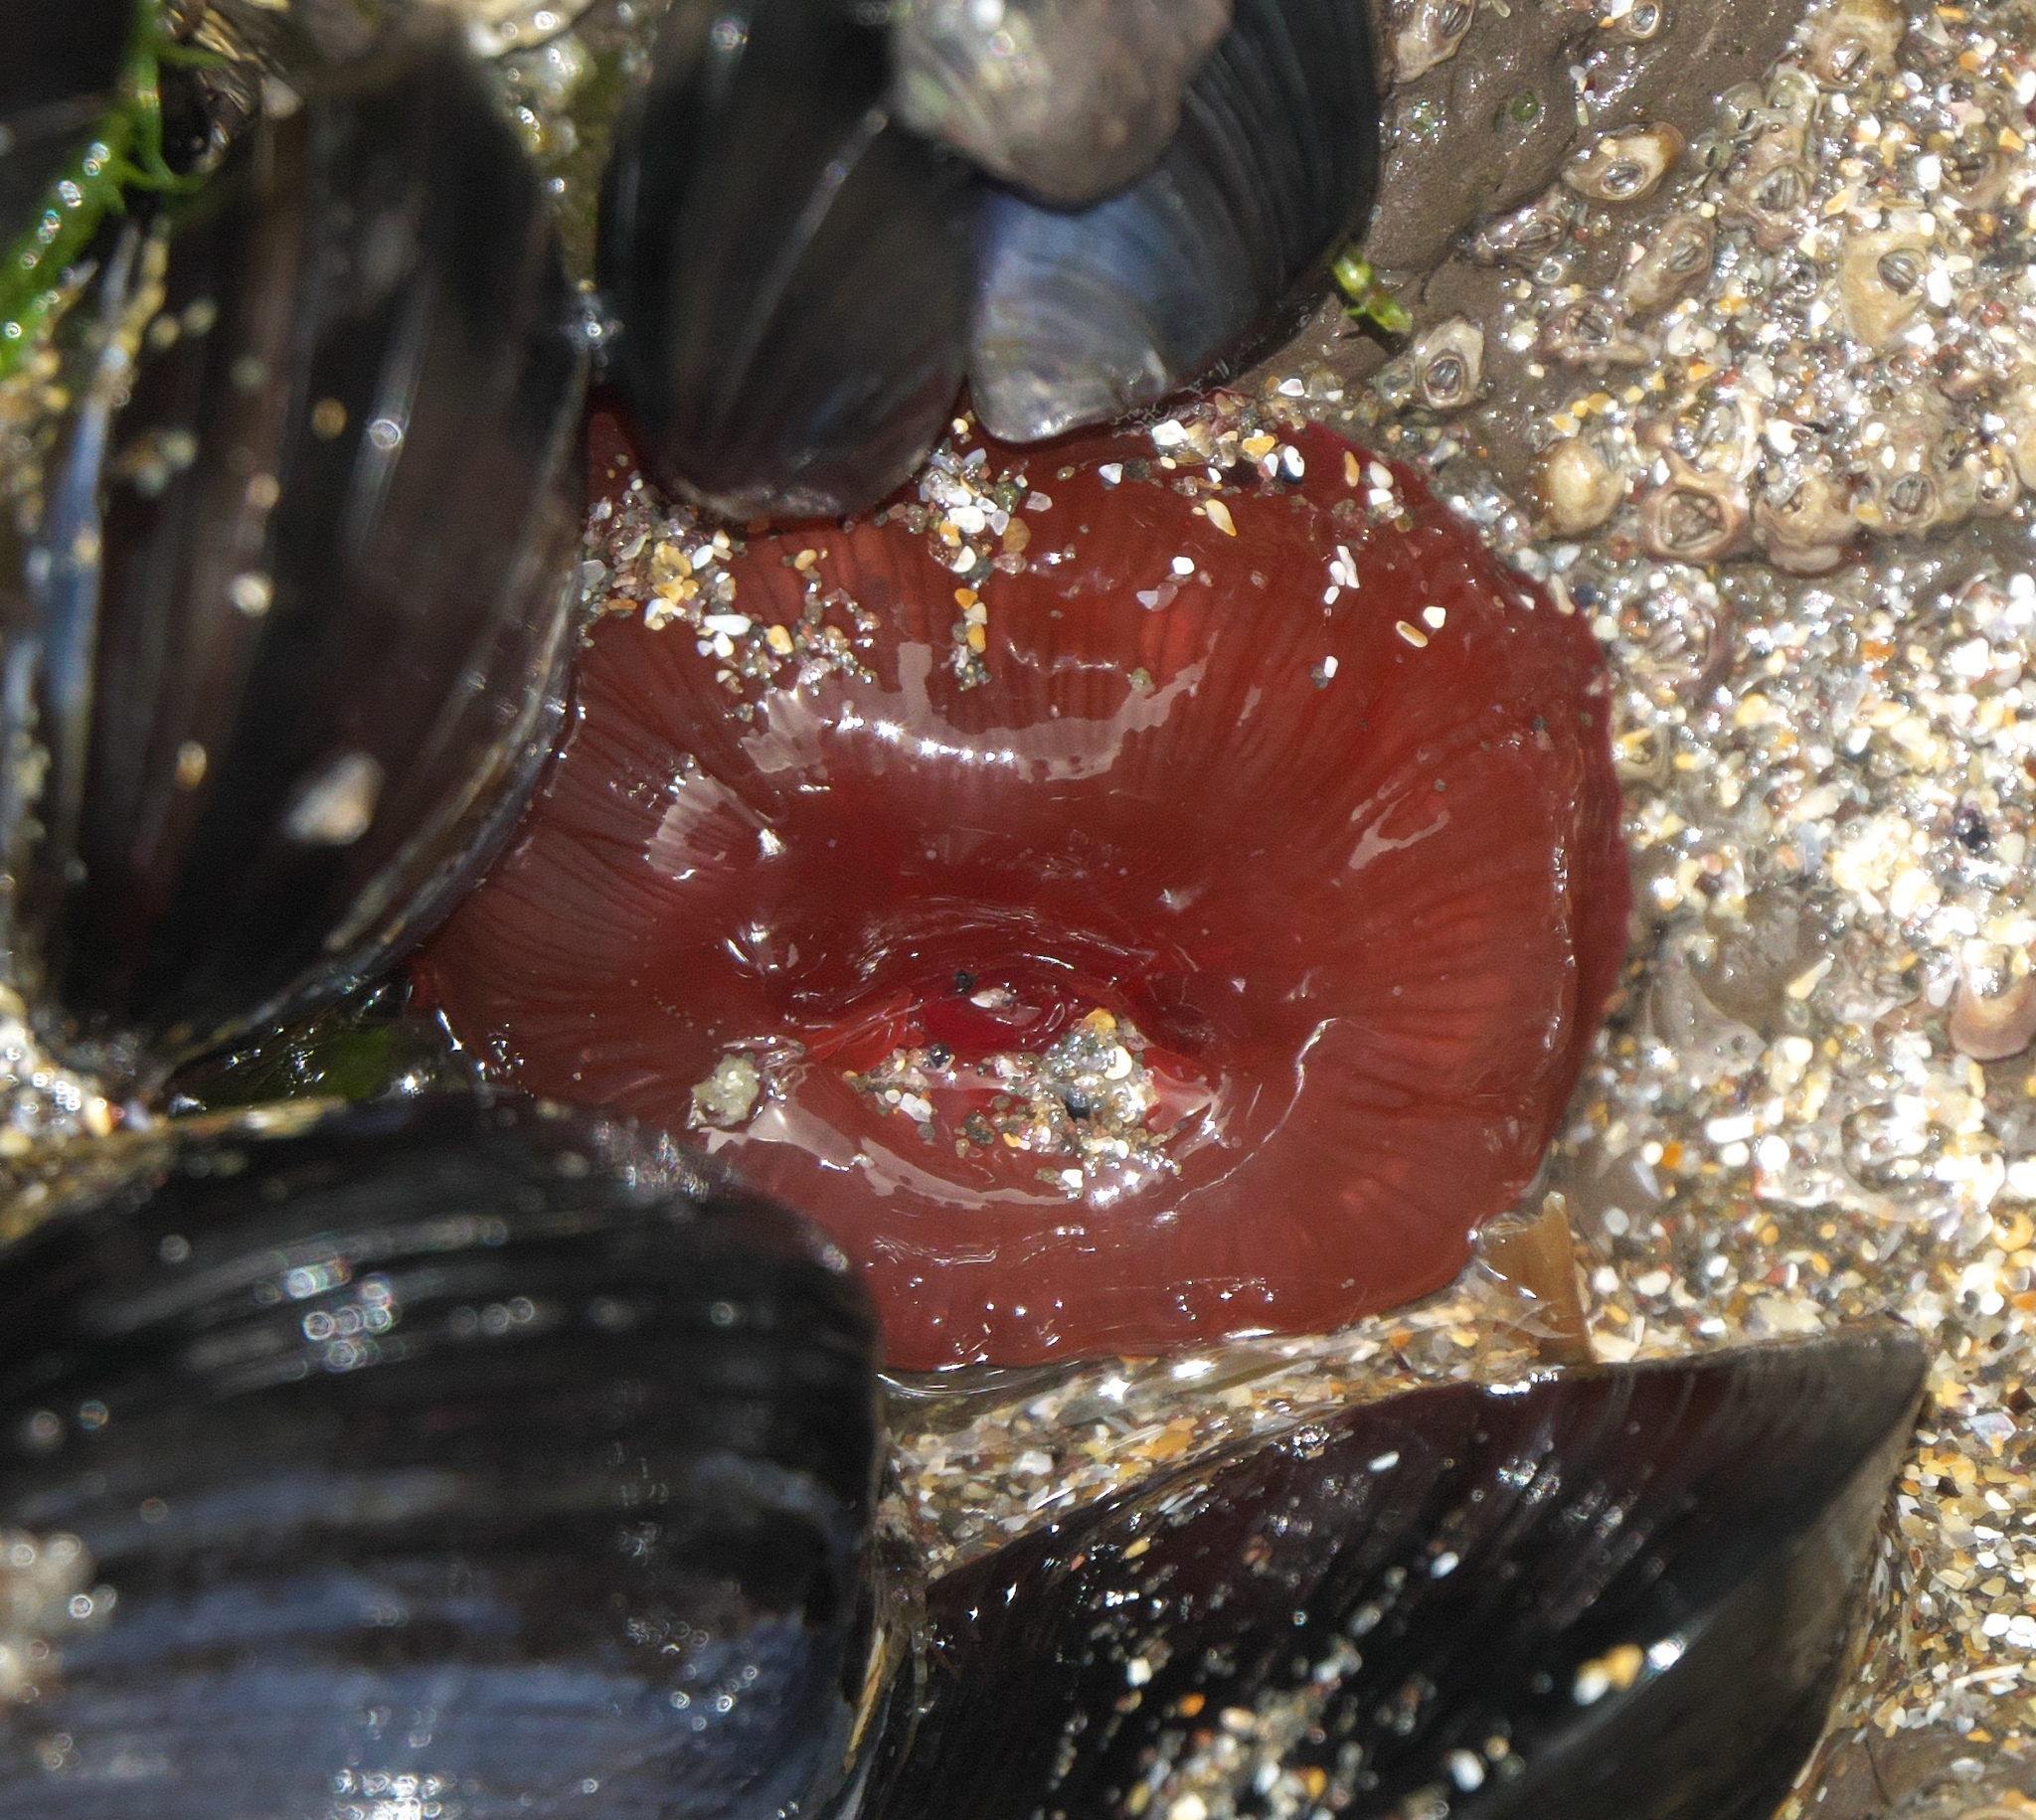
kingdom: Animalia
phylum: Cnidaria
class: Anthozoa
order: Actiniaria
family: Actiniidae
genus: Actinia
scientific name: Actinia tenebrosa
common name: Waratah anemone
